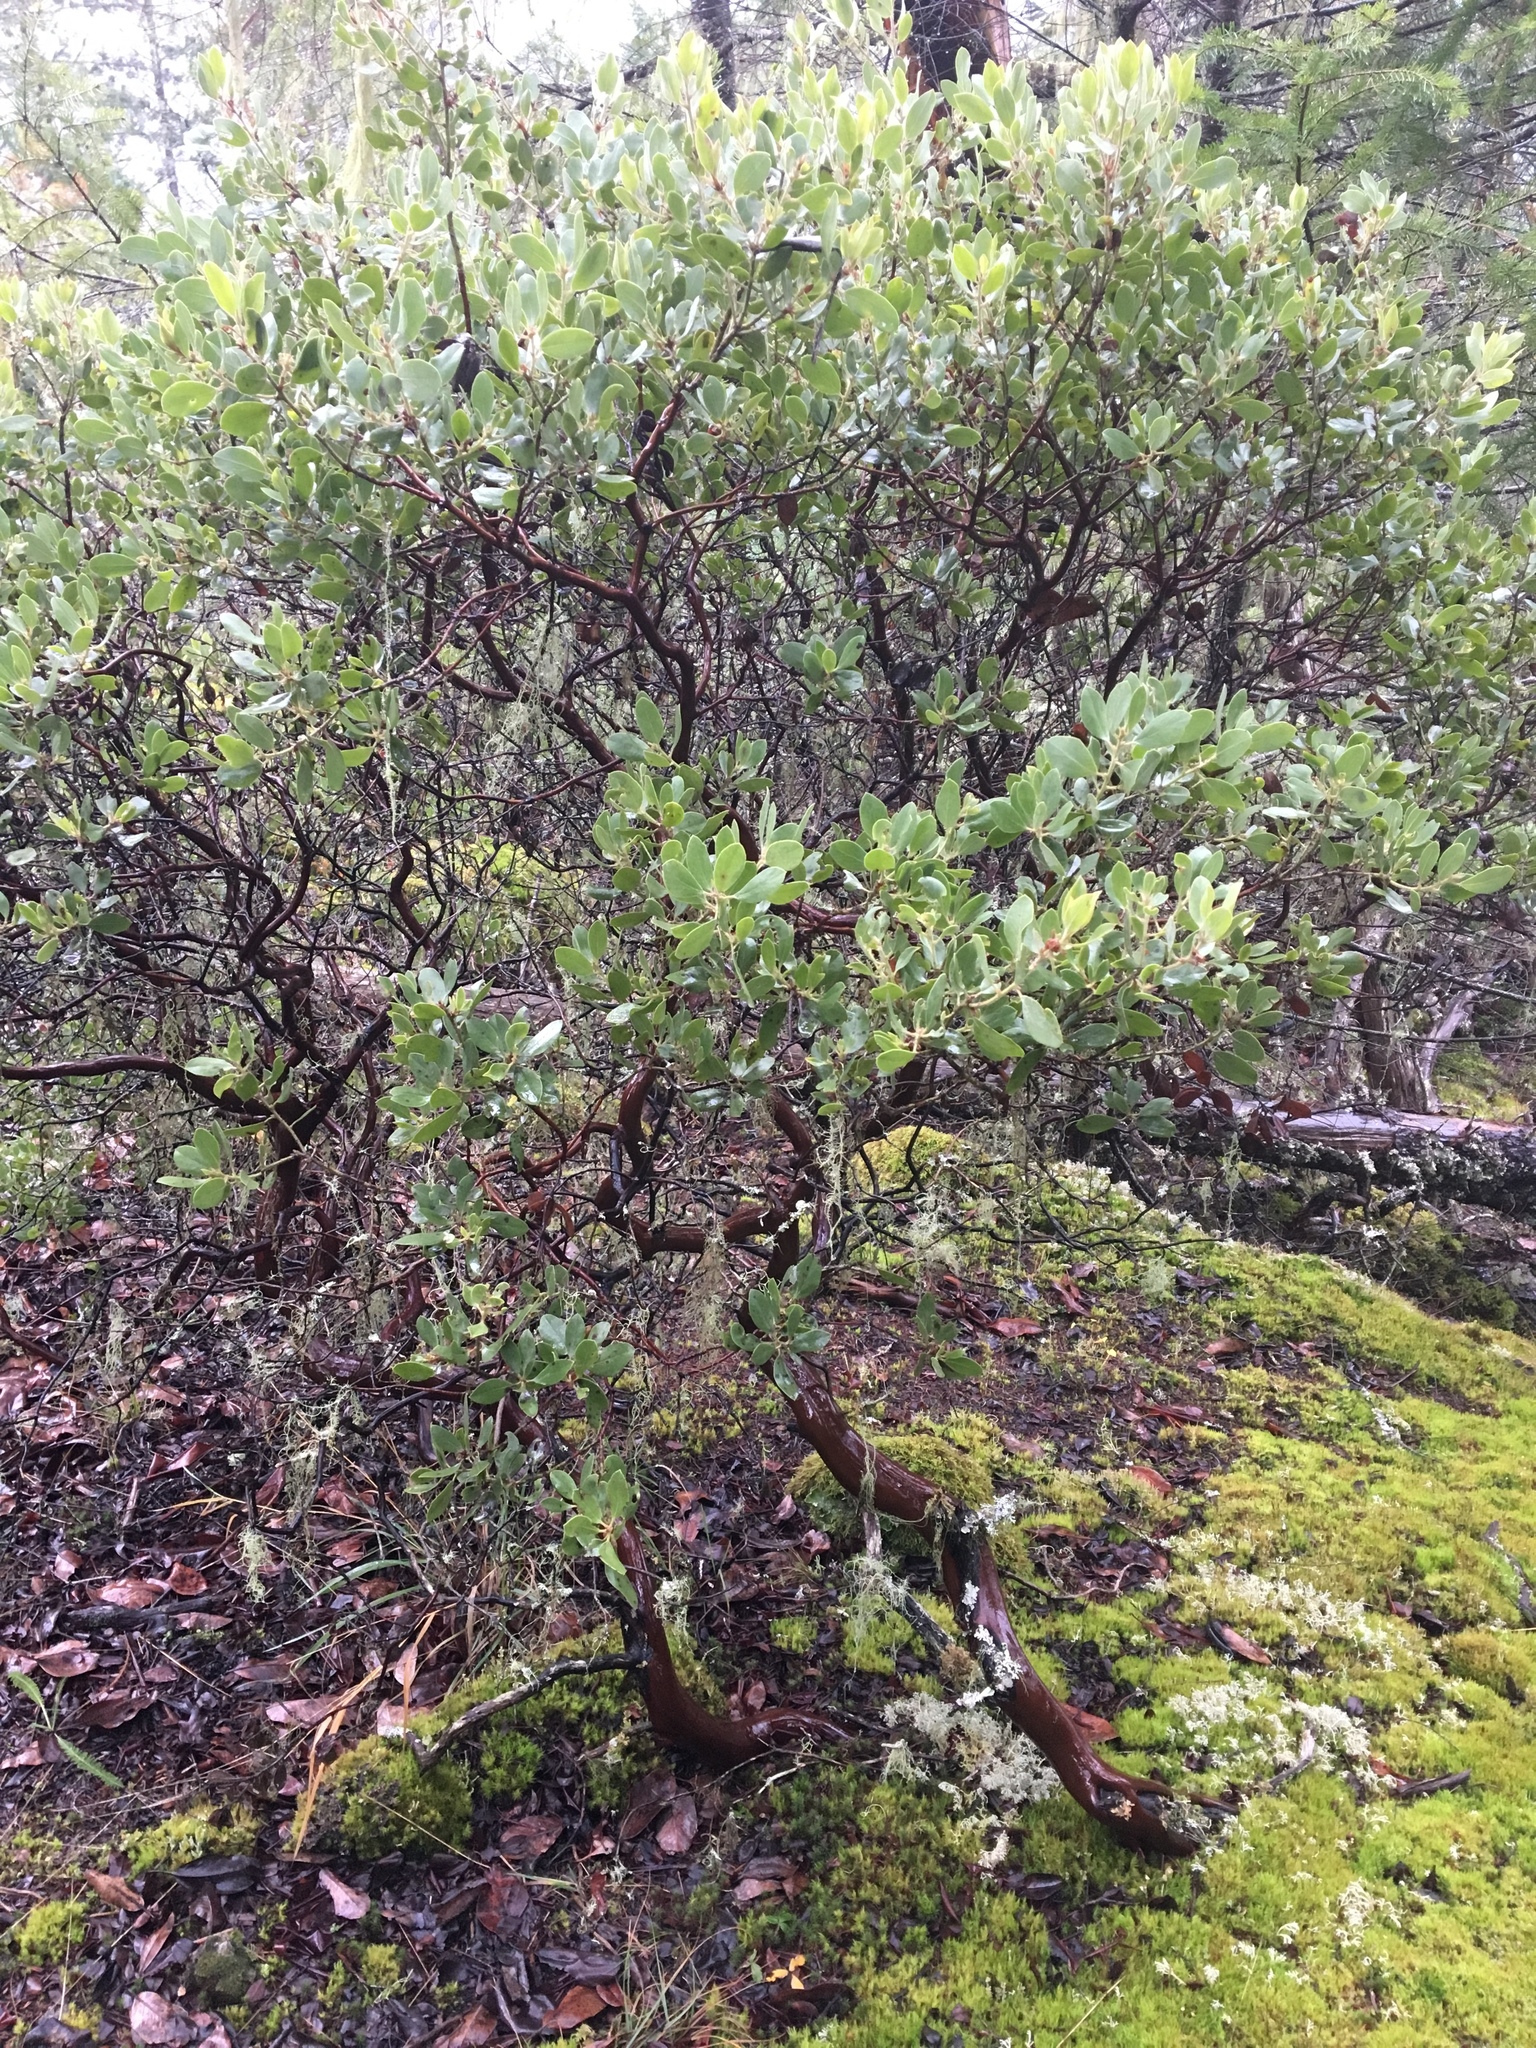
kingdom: Plantae
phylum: Tracheophyta
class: Magnoliopsida
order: Ericales
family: Ericaceae
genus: Arctostaphylos
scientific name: Arctostaphylos columbiana
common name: Bristly bearberry
